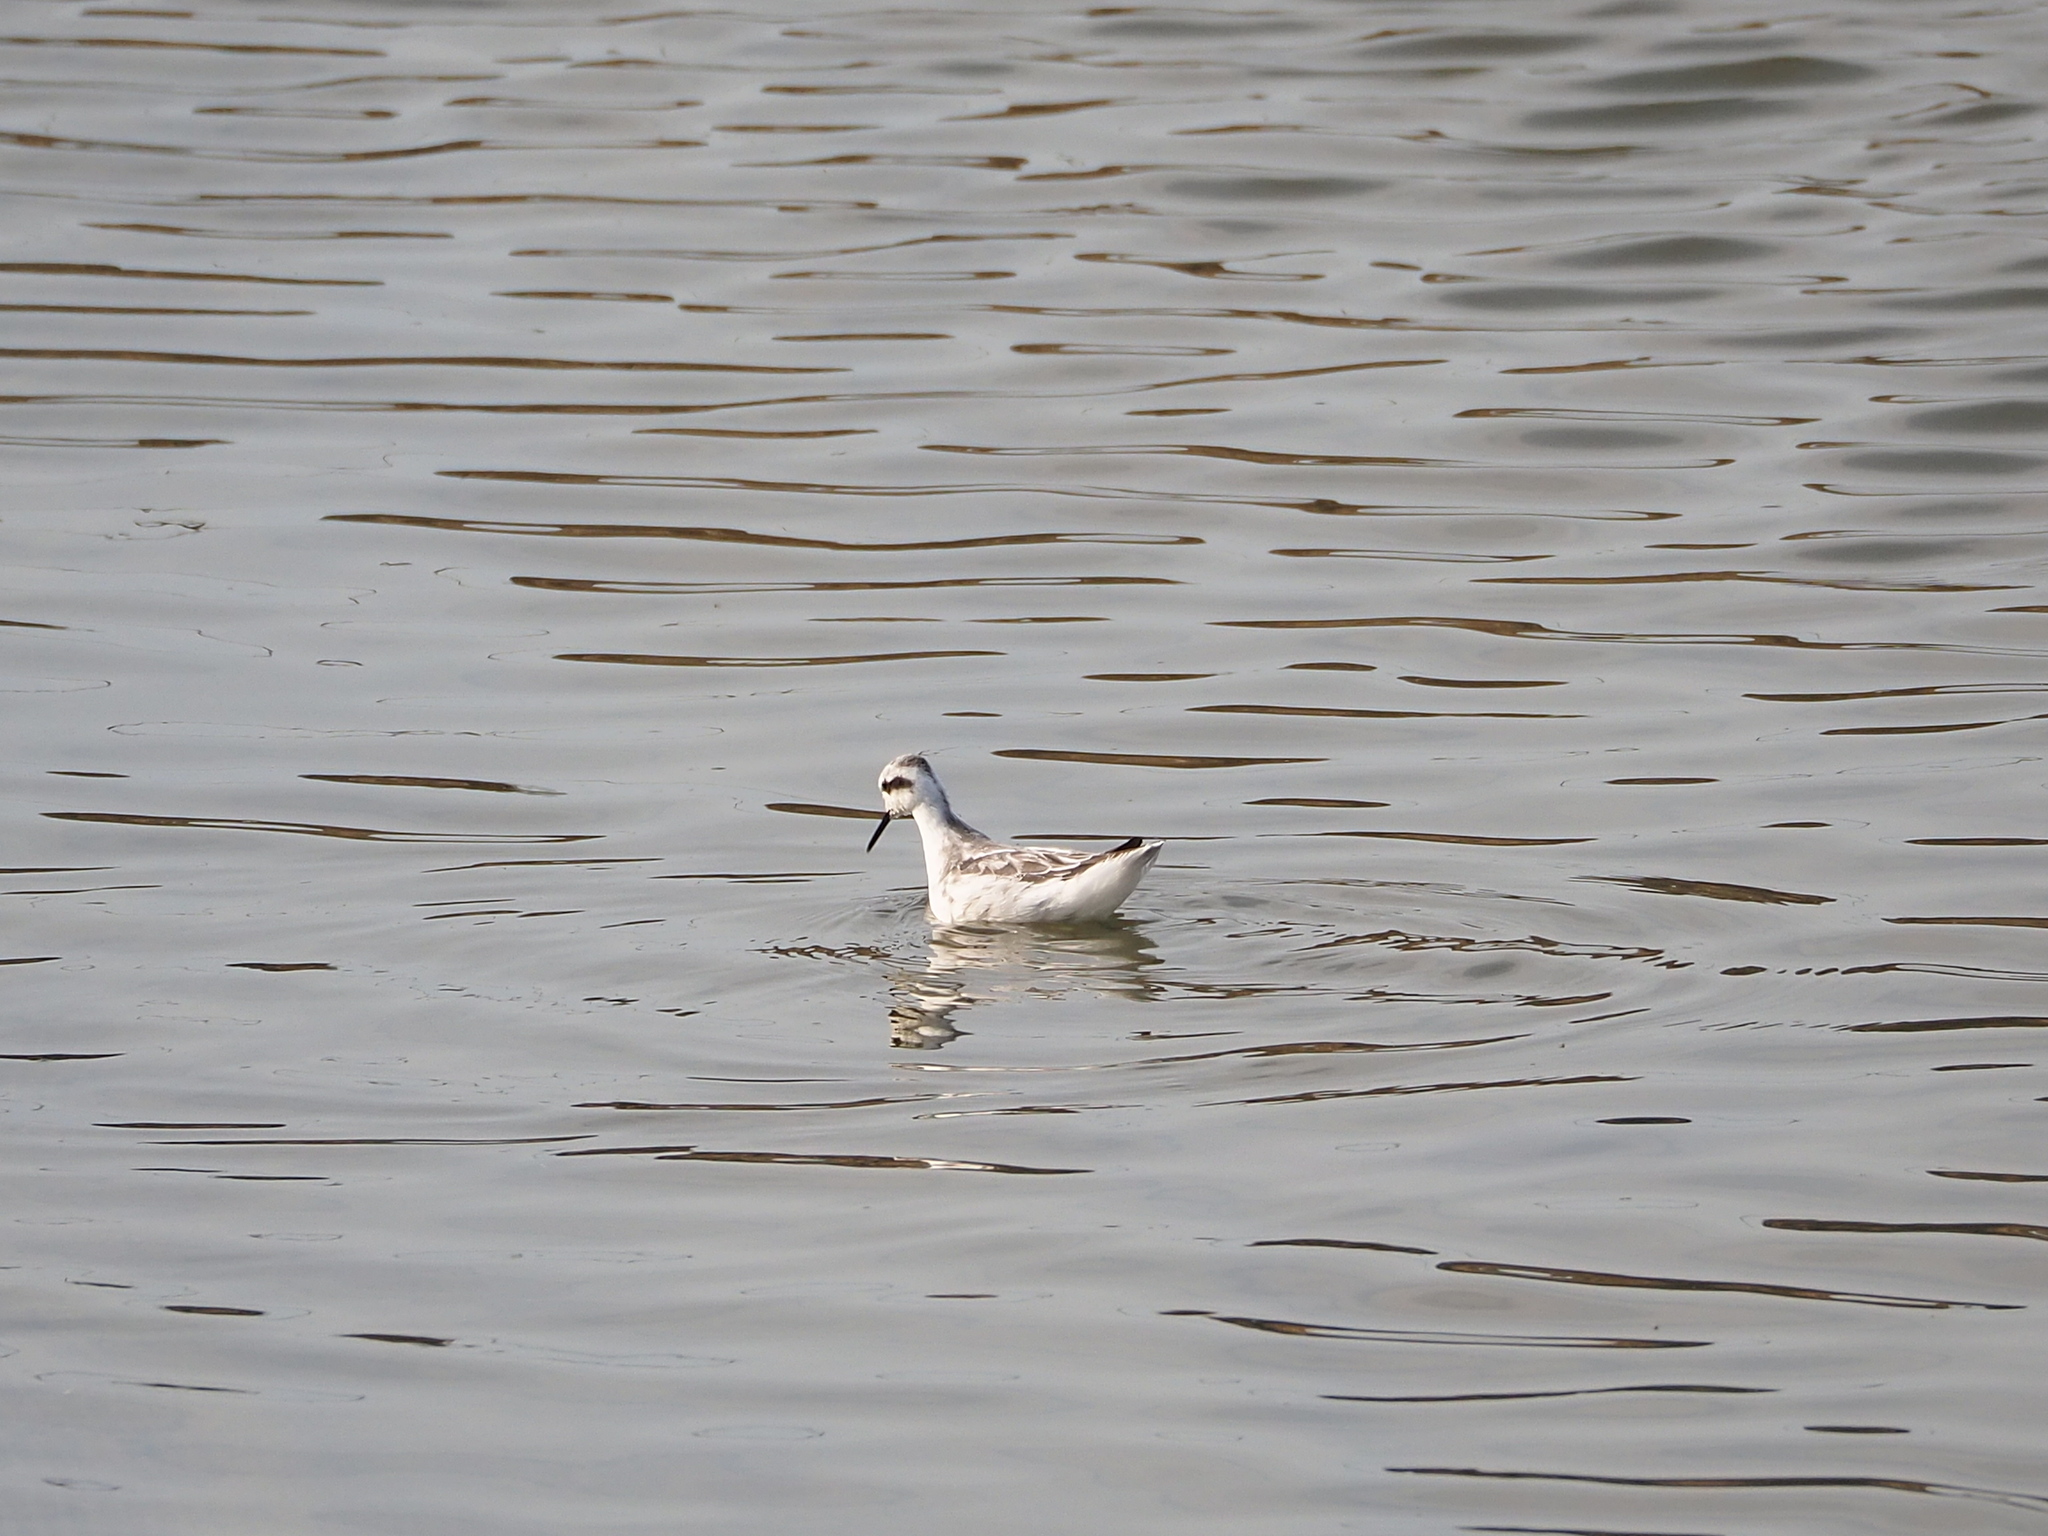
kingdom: Animalia
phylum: Chordata
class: Aves
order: Charadriiformes
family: Scolopacidae
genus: Phalaropus
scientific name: Phalaropus lobatus
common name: Red-necked phalarope
